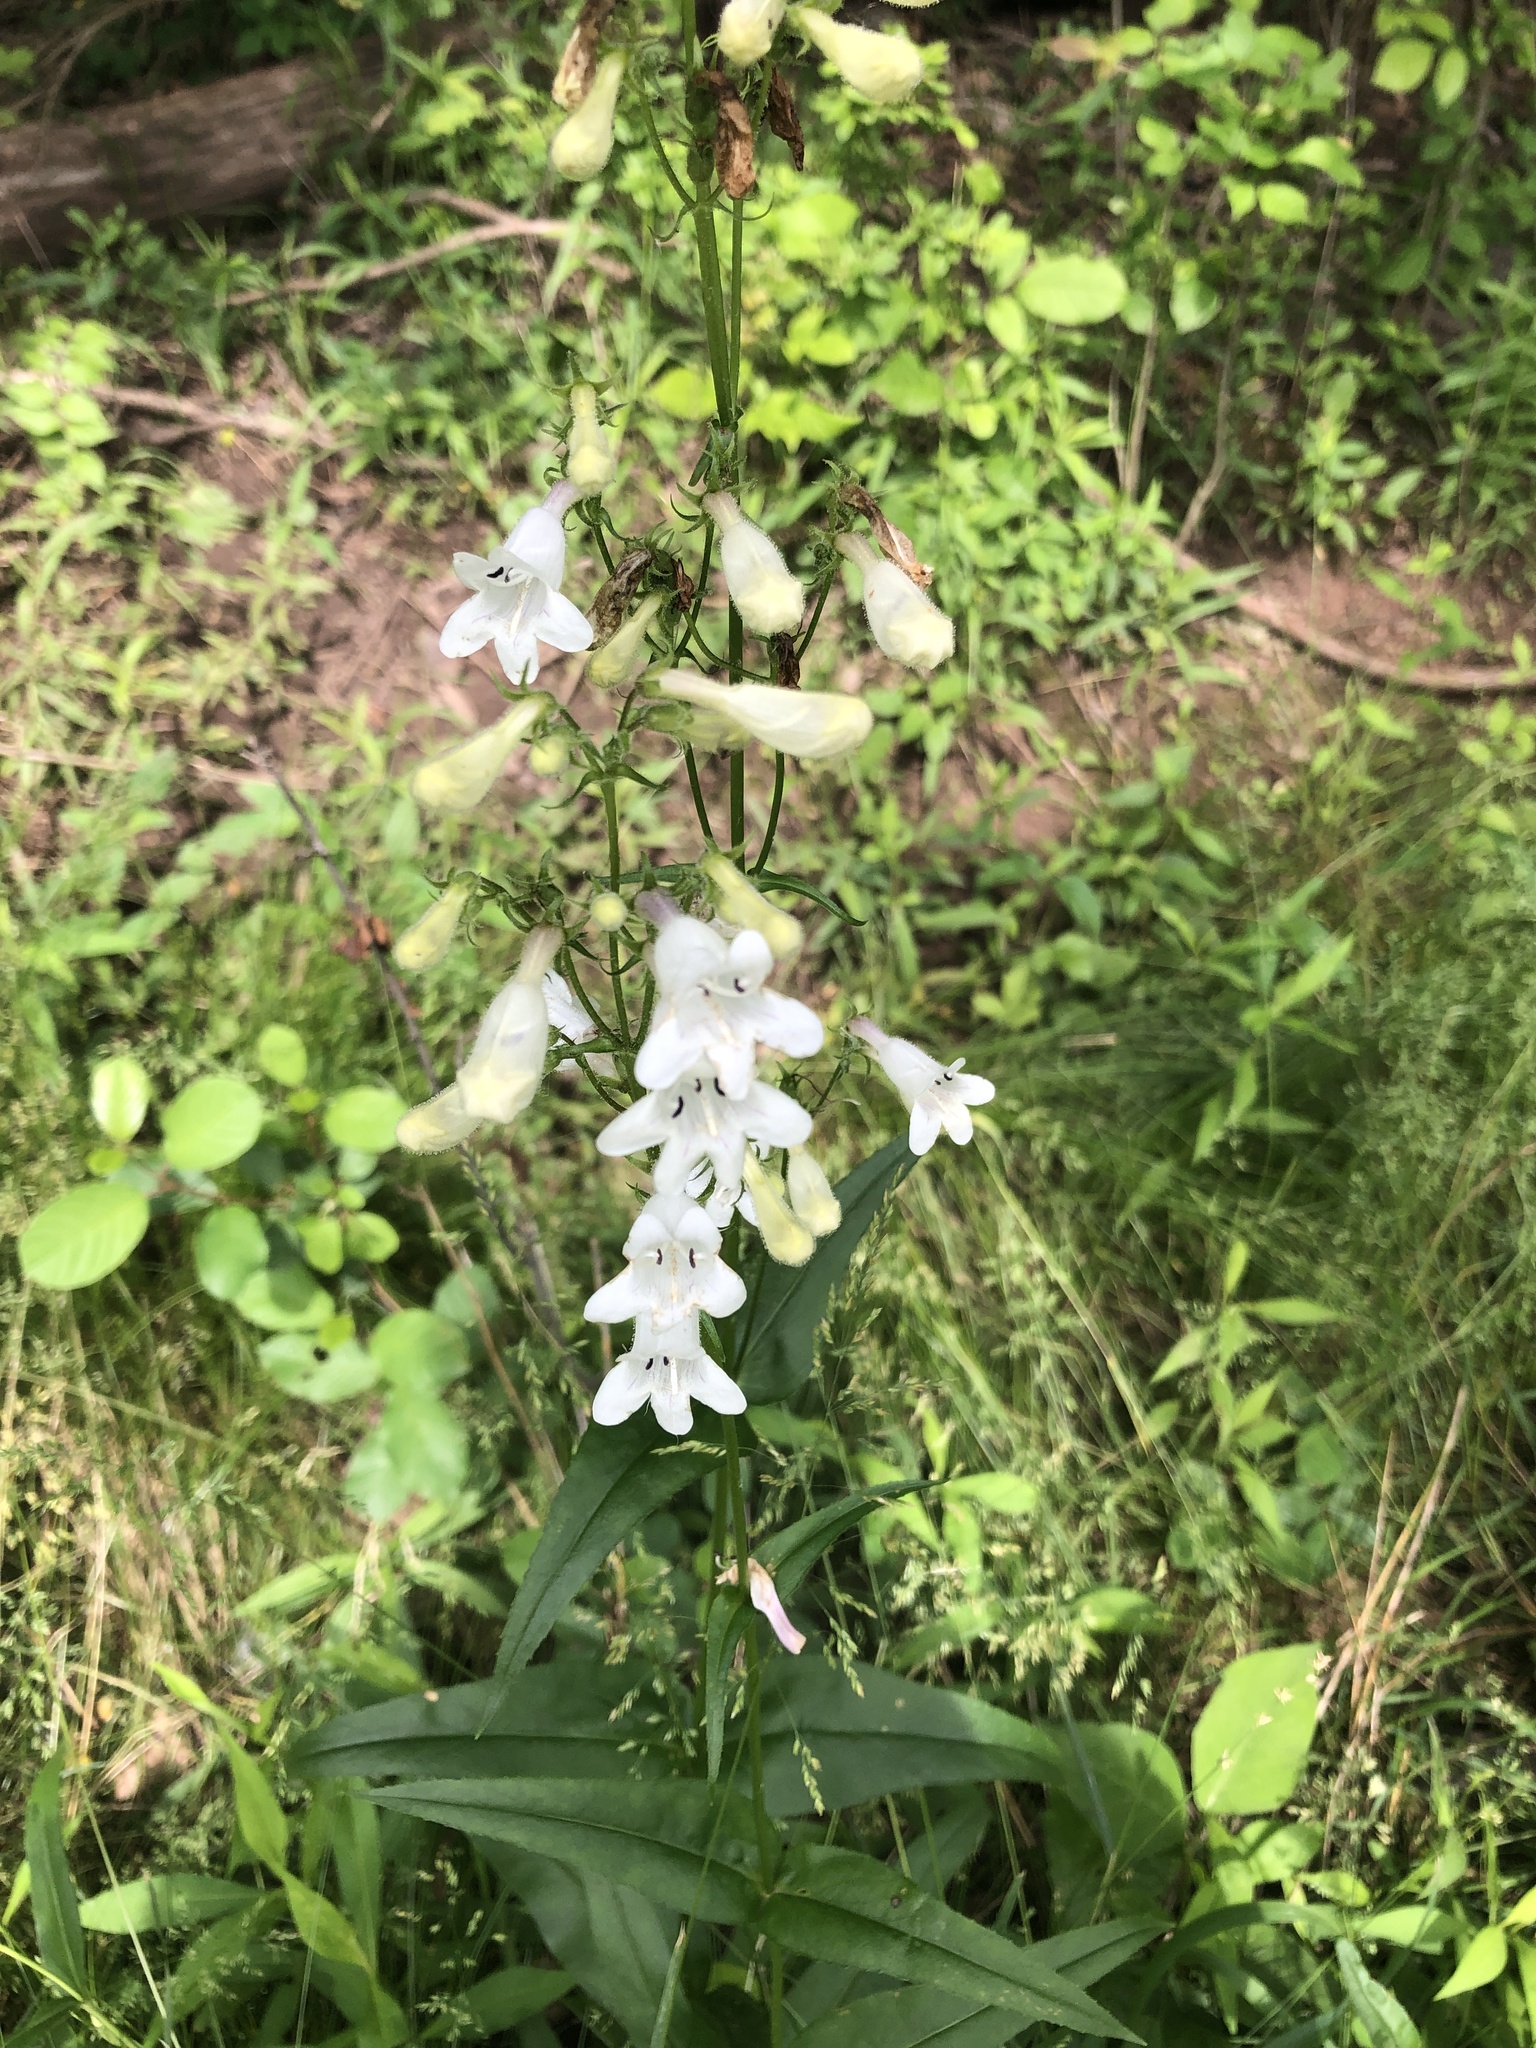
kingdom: Plantae
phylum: Tracheophyta
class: Magnoliopsida
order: Lamiales
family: Plantaginaceae
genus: Penstemon
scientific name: Penstemon digitalis
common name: Foxglove beardtongue
